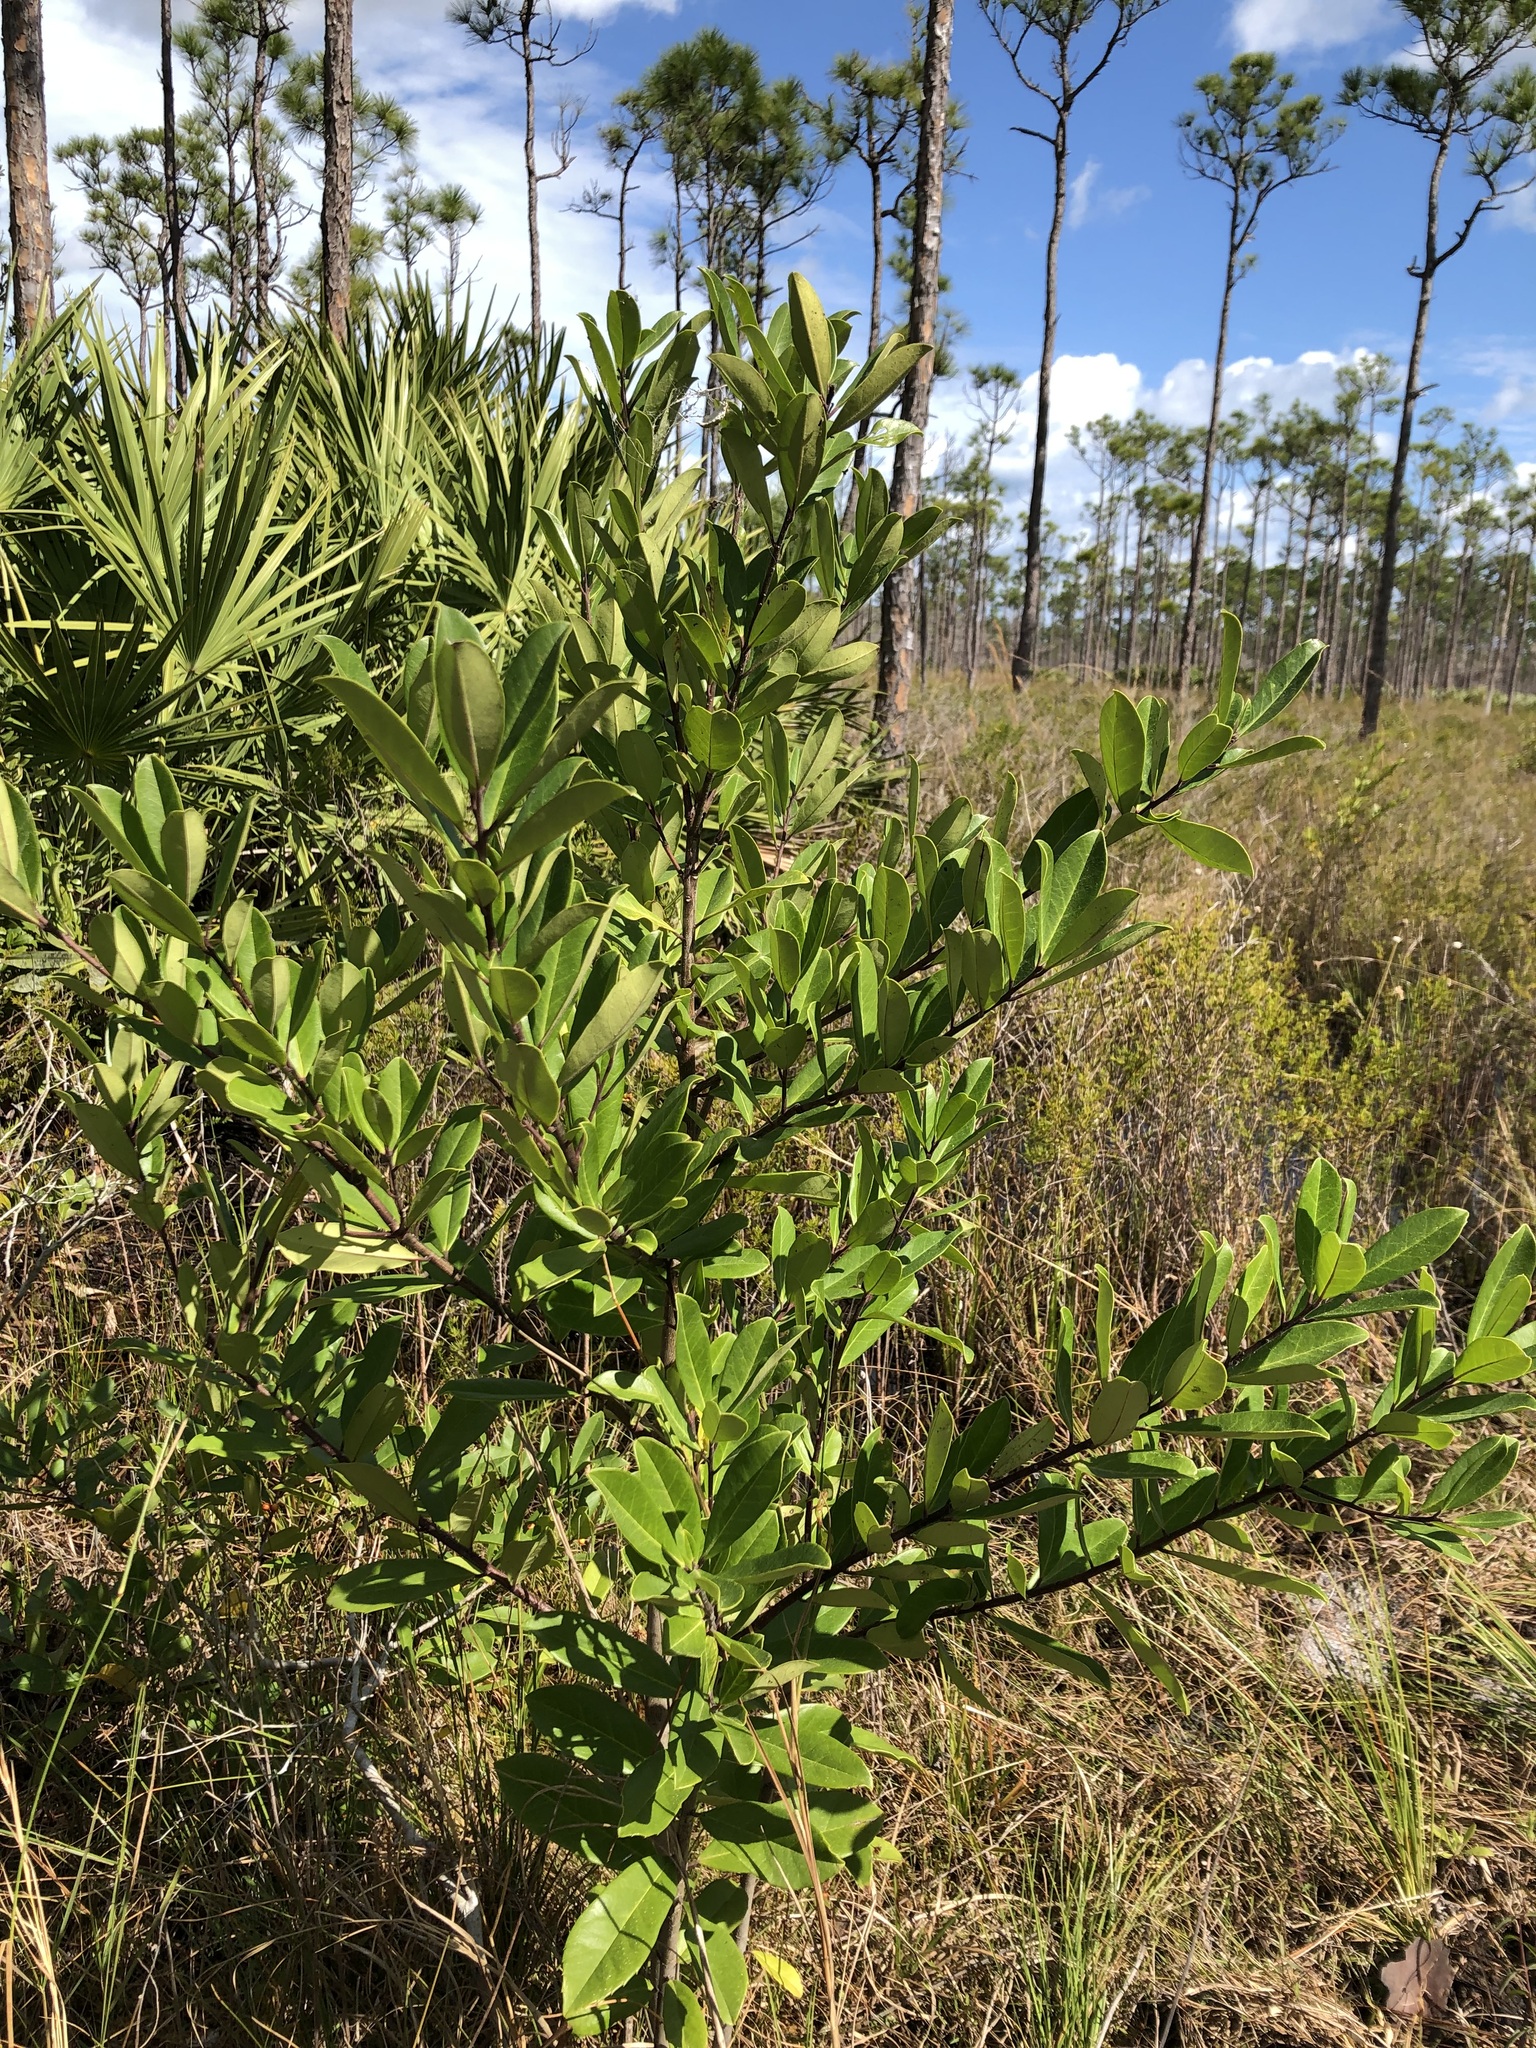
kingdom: Plantae
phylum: Tracheophyta
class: Magnoliopsida
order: Aquifoliales
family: Aquifoliaceae
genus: Ilex
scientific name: Ilex cassine
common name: Dahoon
